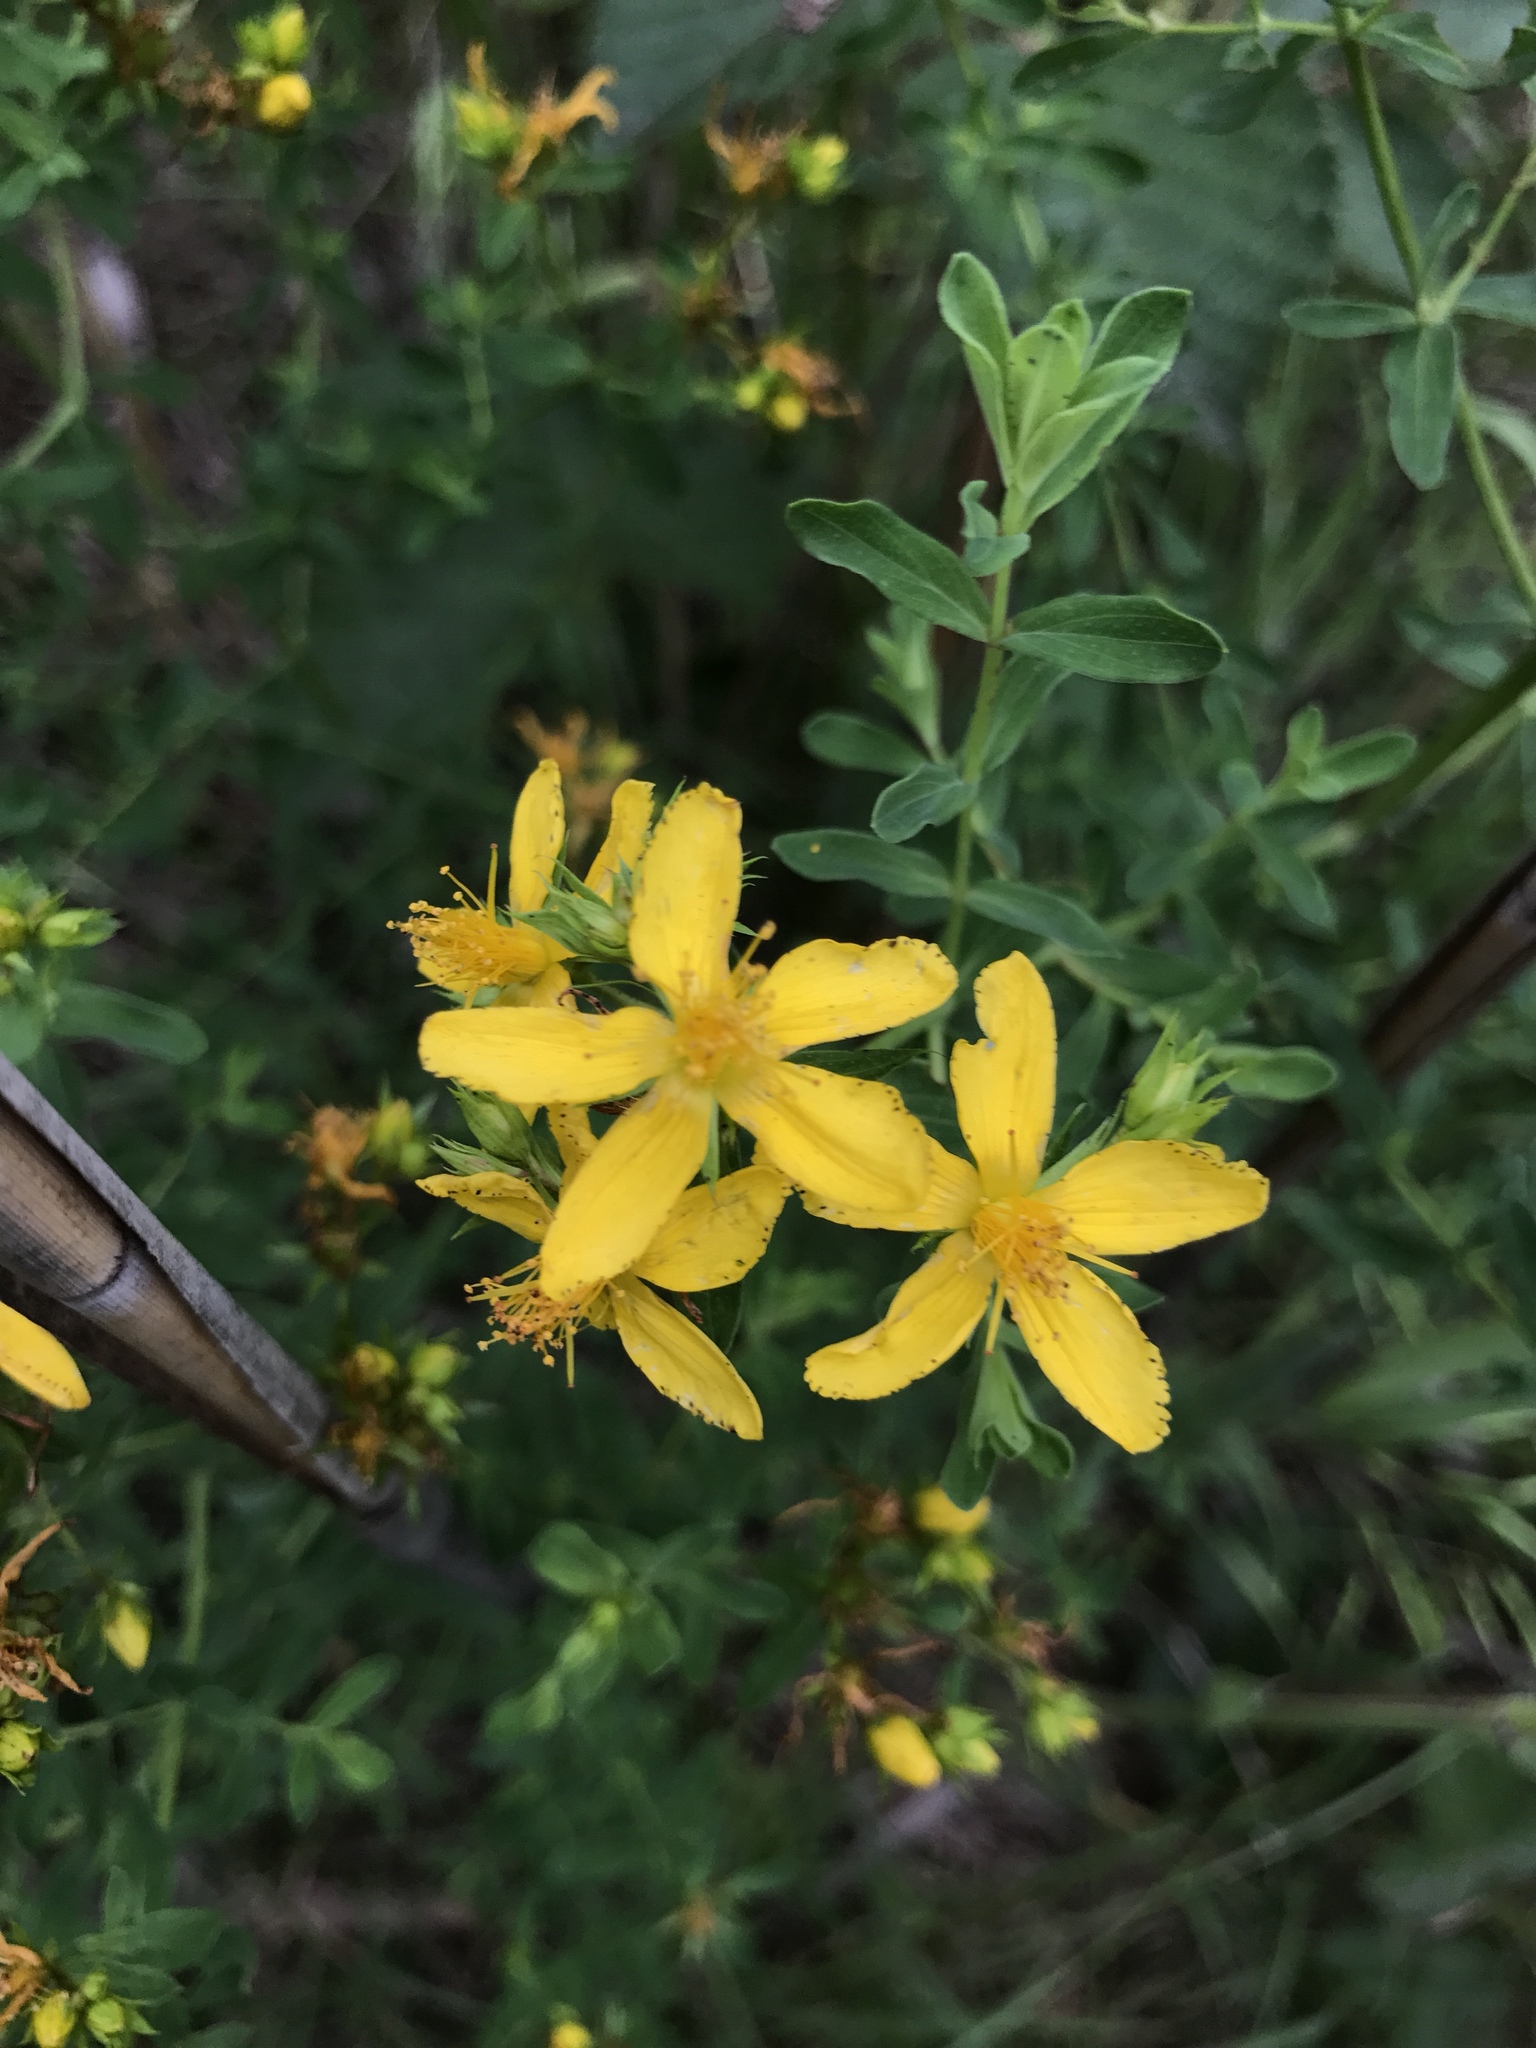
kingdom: Plantae
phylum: Tracheophyta
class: Magnoliopsida
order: Malpighiales
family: Hypericaceae
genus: Hypericum
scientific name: Hypericum perforatum
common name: Common st. johnswort
